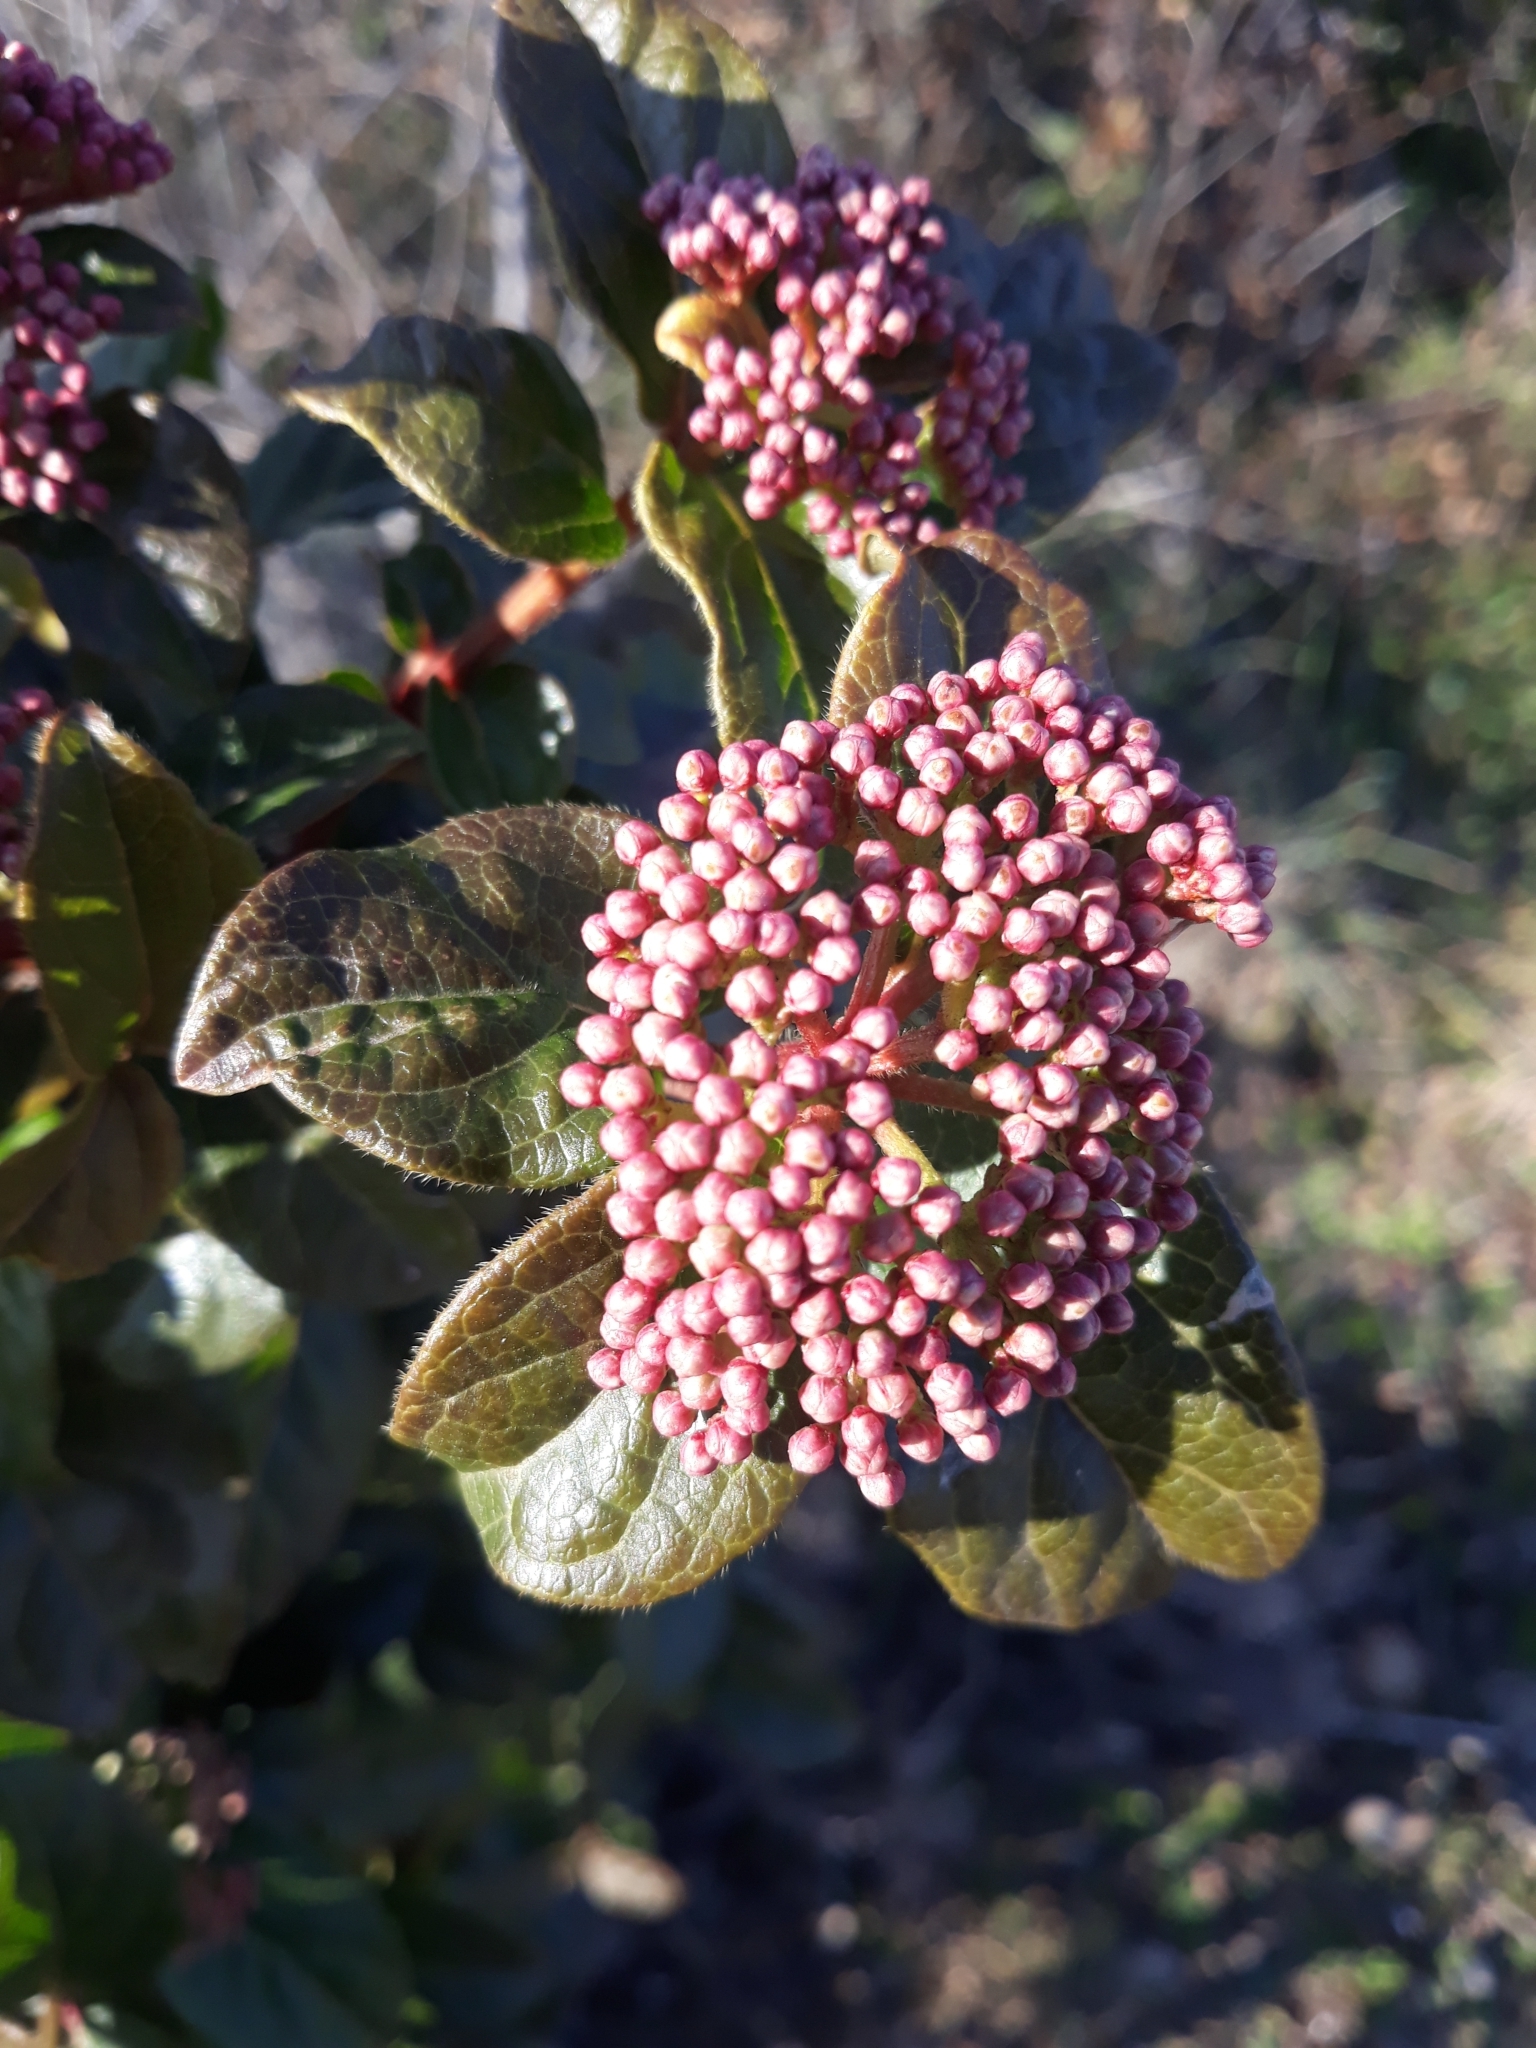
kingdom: Plantae
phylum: Tracheophyta
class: Magnoliopsida
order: Dipsacales
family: Viburnaceae
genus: Viburnum
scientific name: Viburnum tinus
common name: Laurustinus
